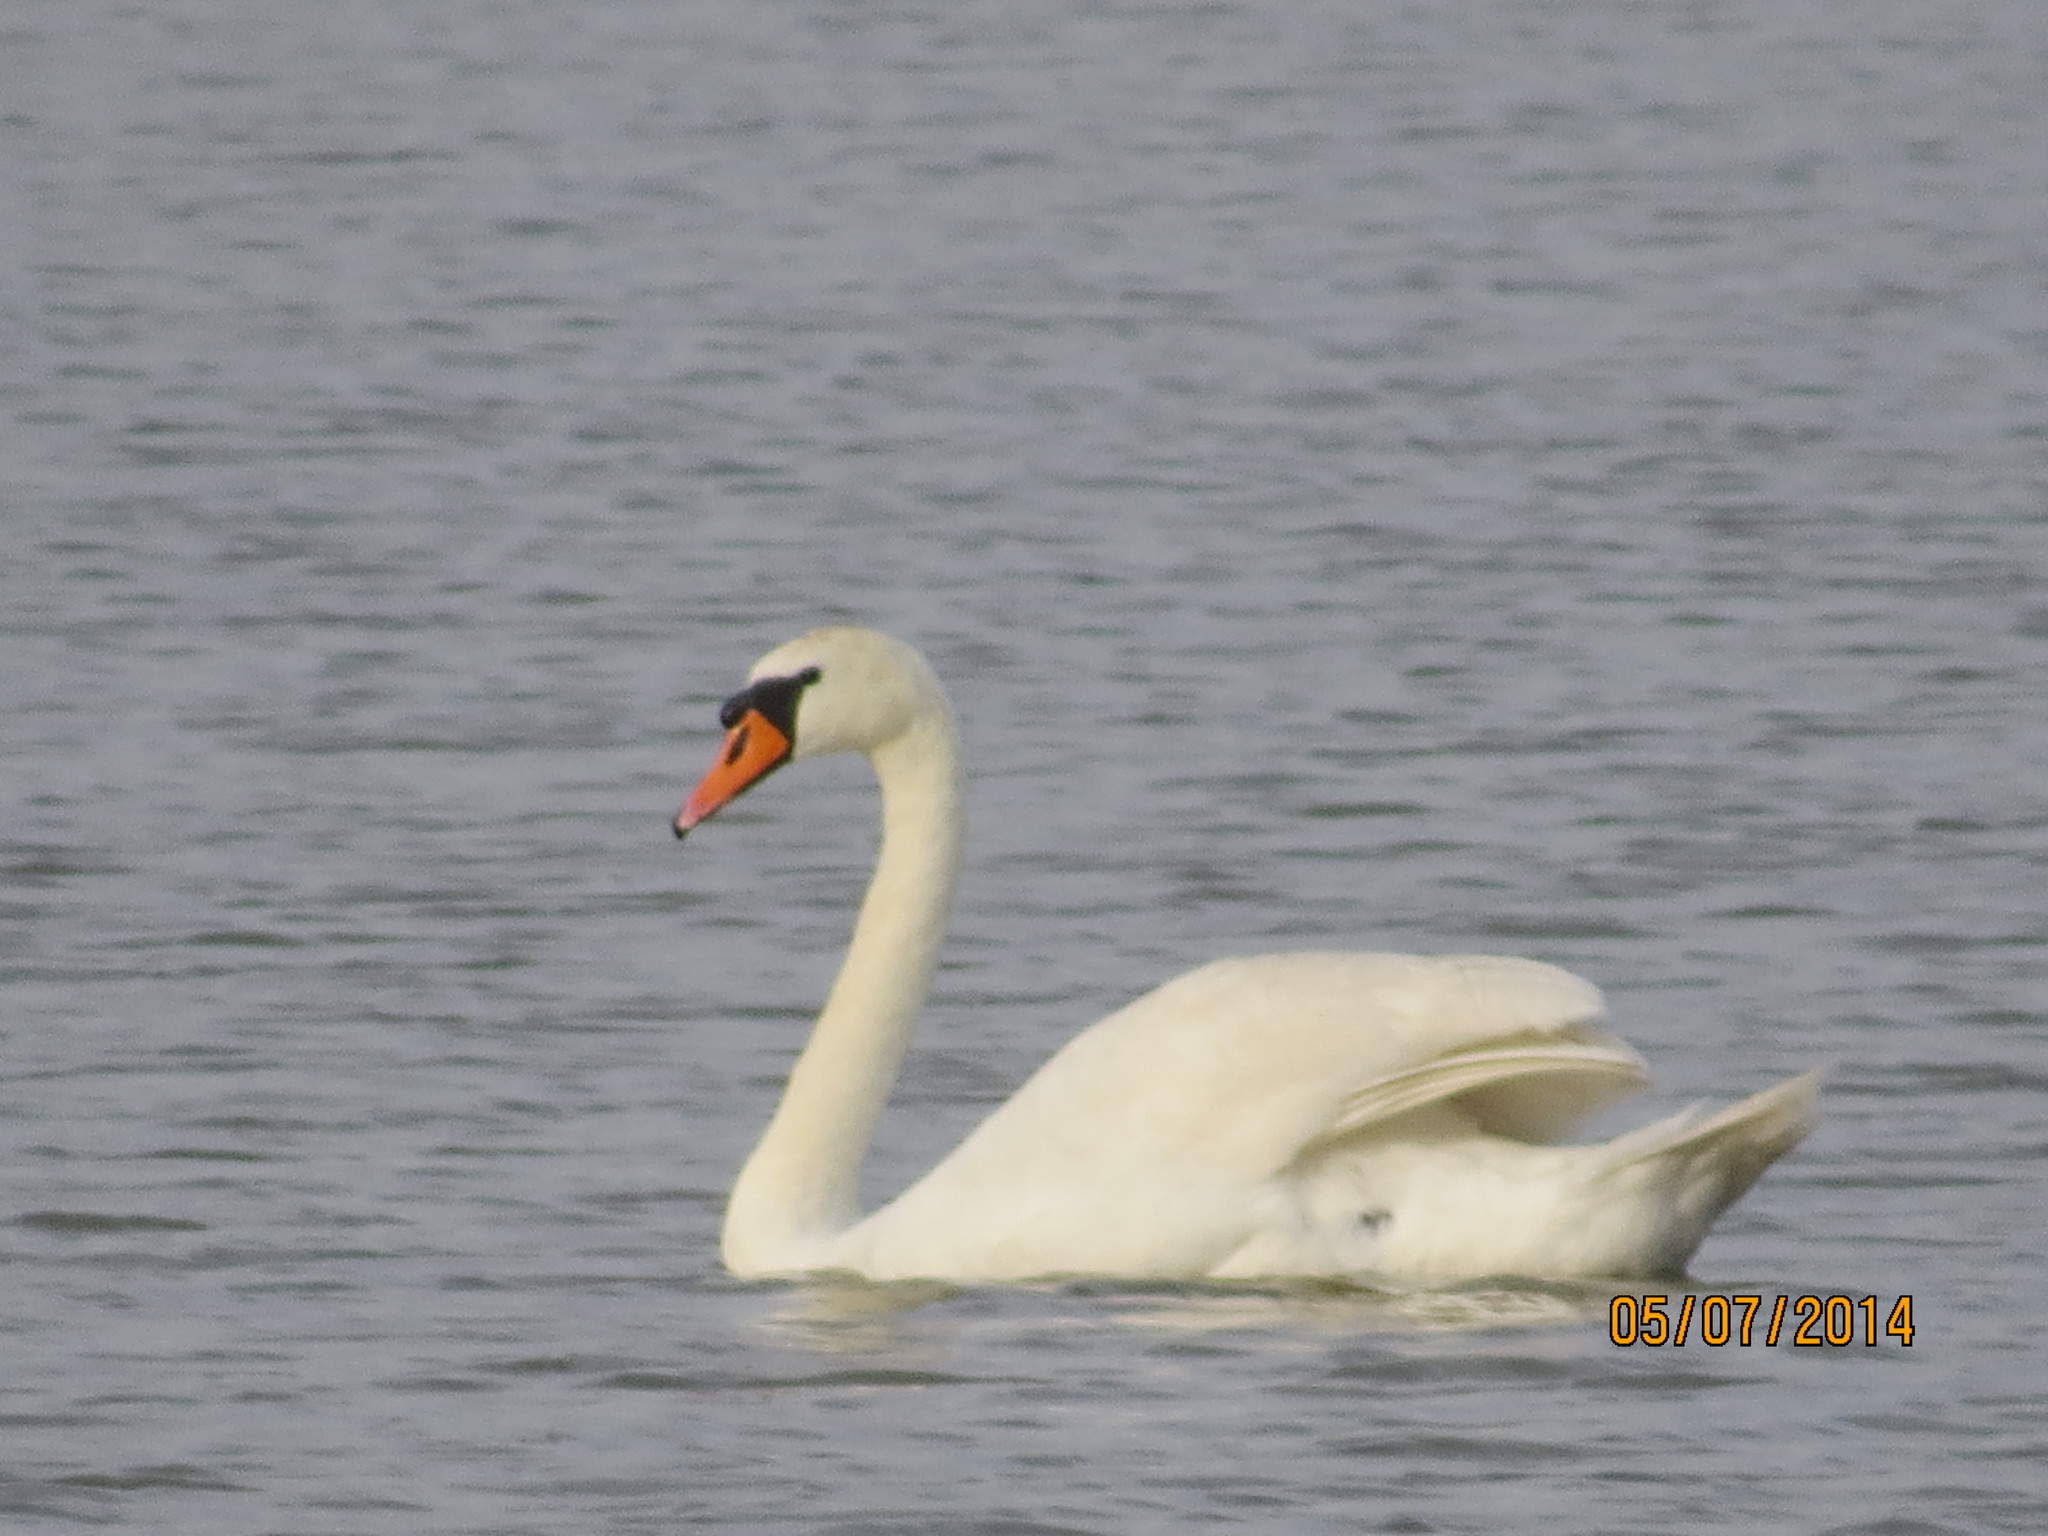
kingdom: Animalia
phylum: Chordata
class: Aves
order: Anseriformes
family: Anatidae
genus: Cygnus
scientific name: Cygnus olor
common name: Mute swan
